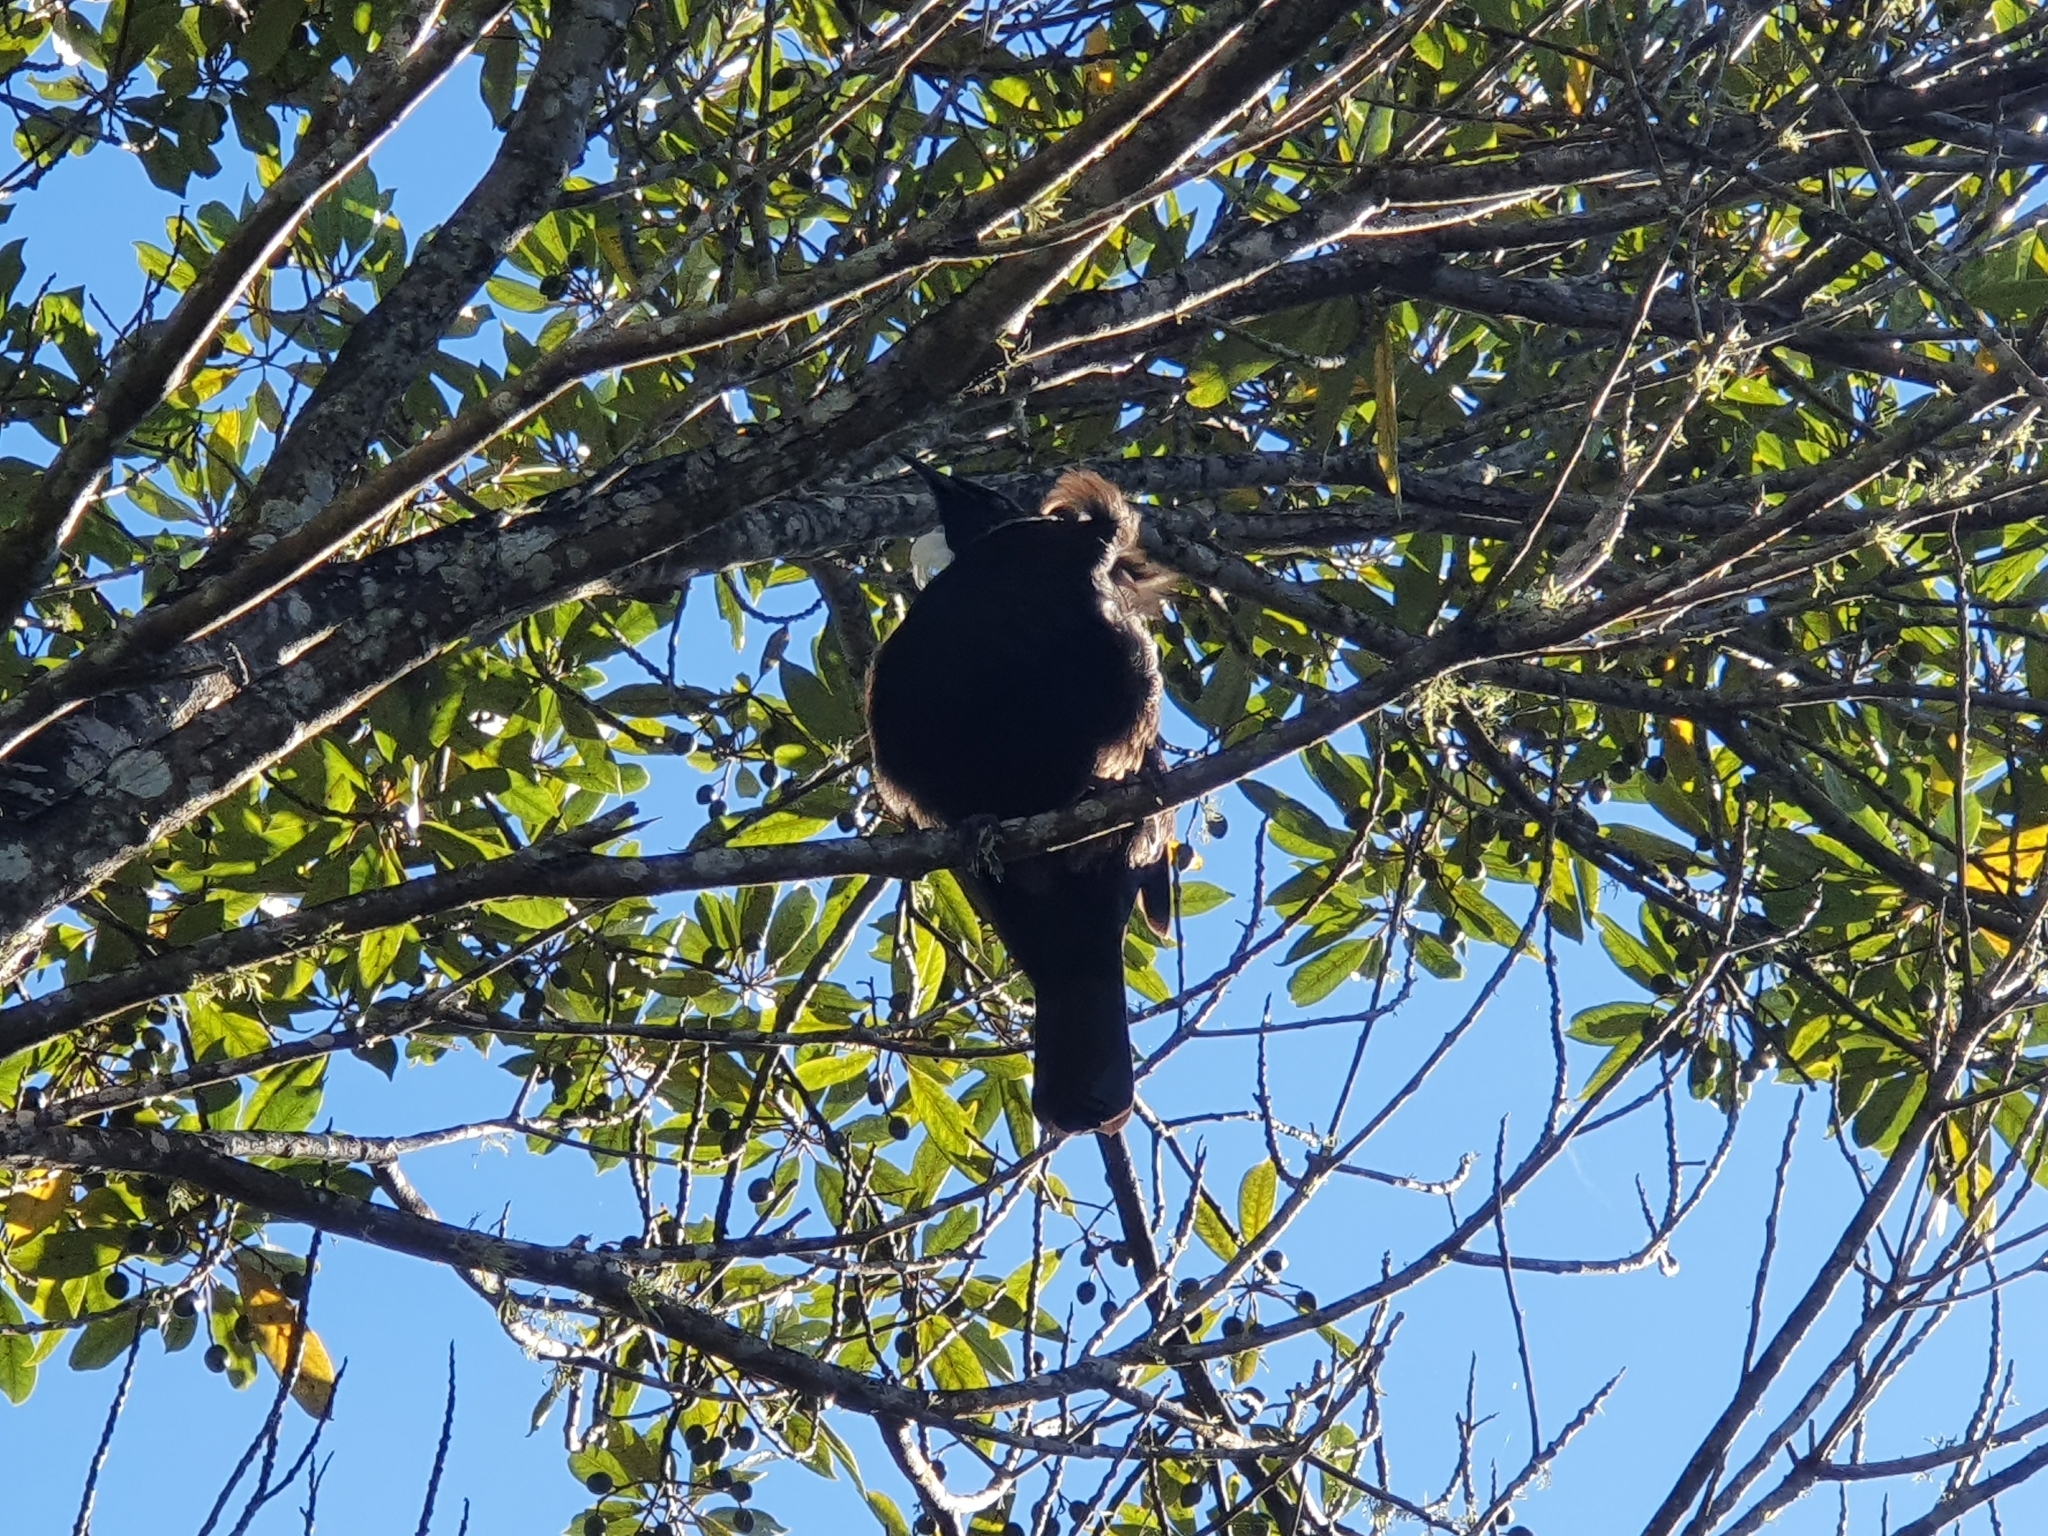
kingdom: Animalia
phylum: Chordata
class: Aves
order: Passeriformes
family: Meliphagidae
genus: Prosthemadera
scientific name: Prosthemadera novaeseelandiae
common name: Tui
